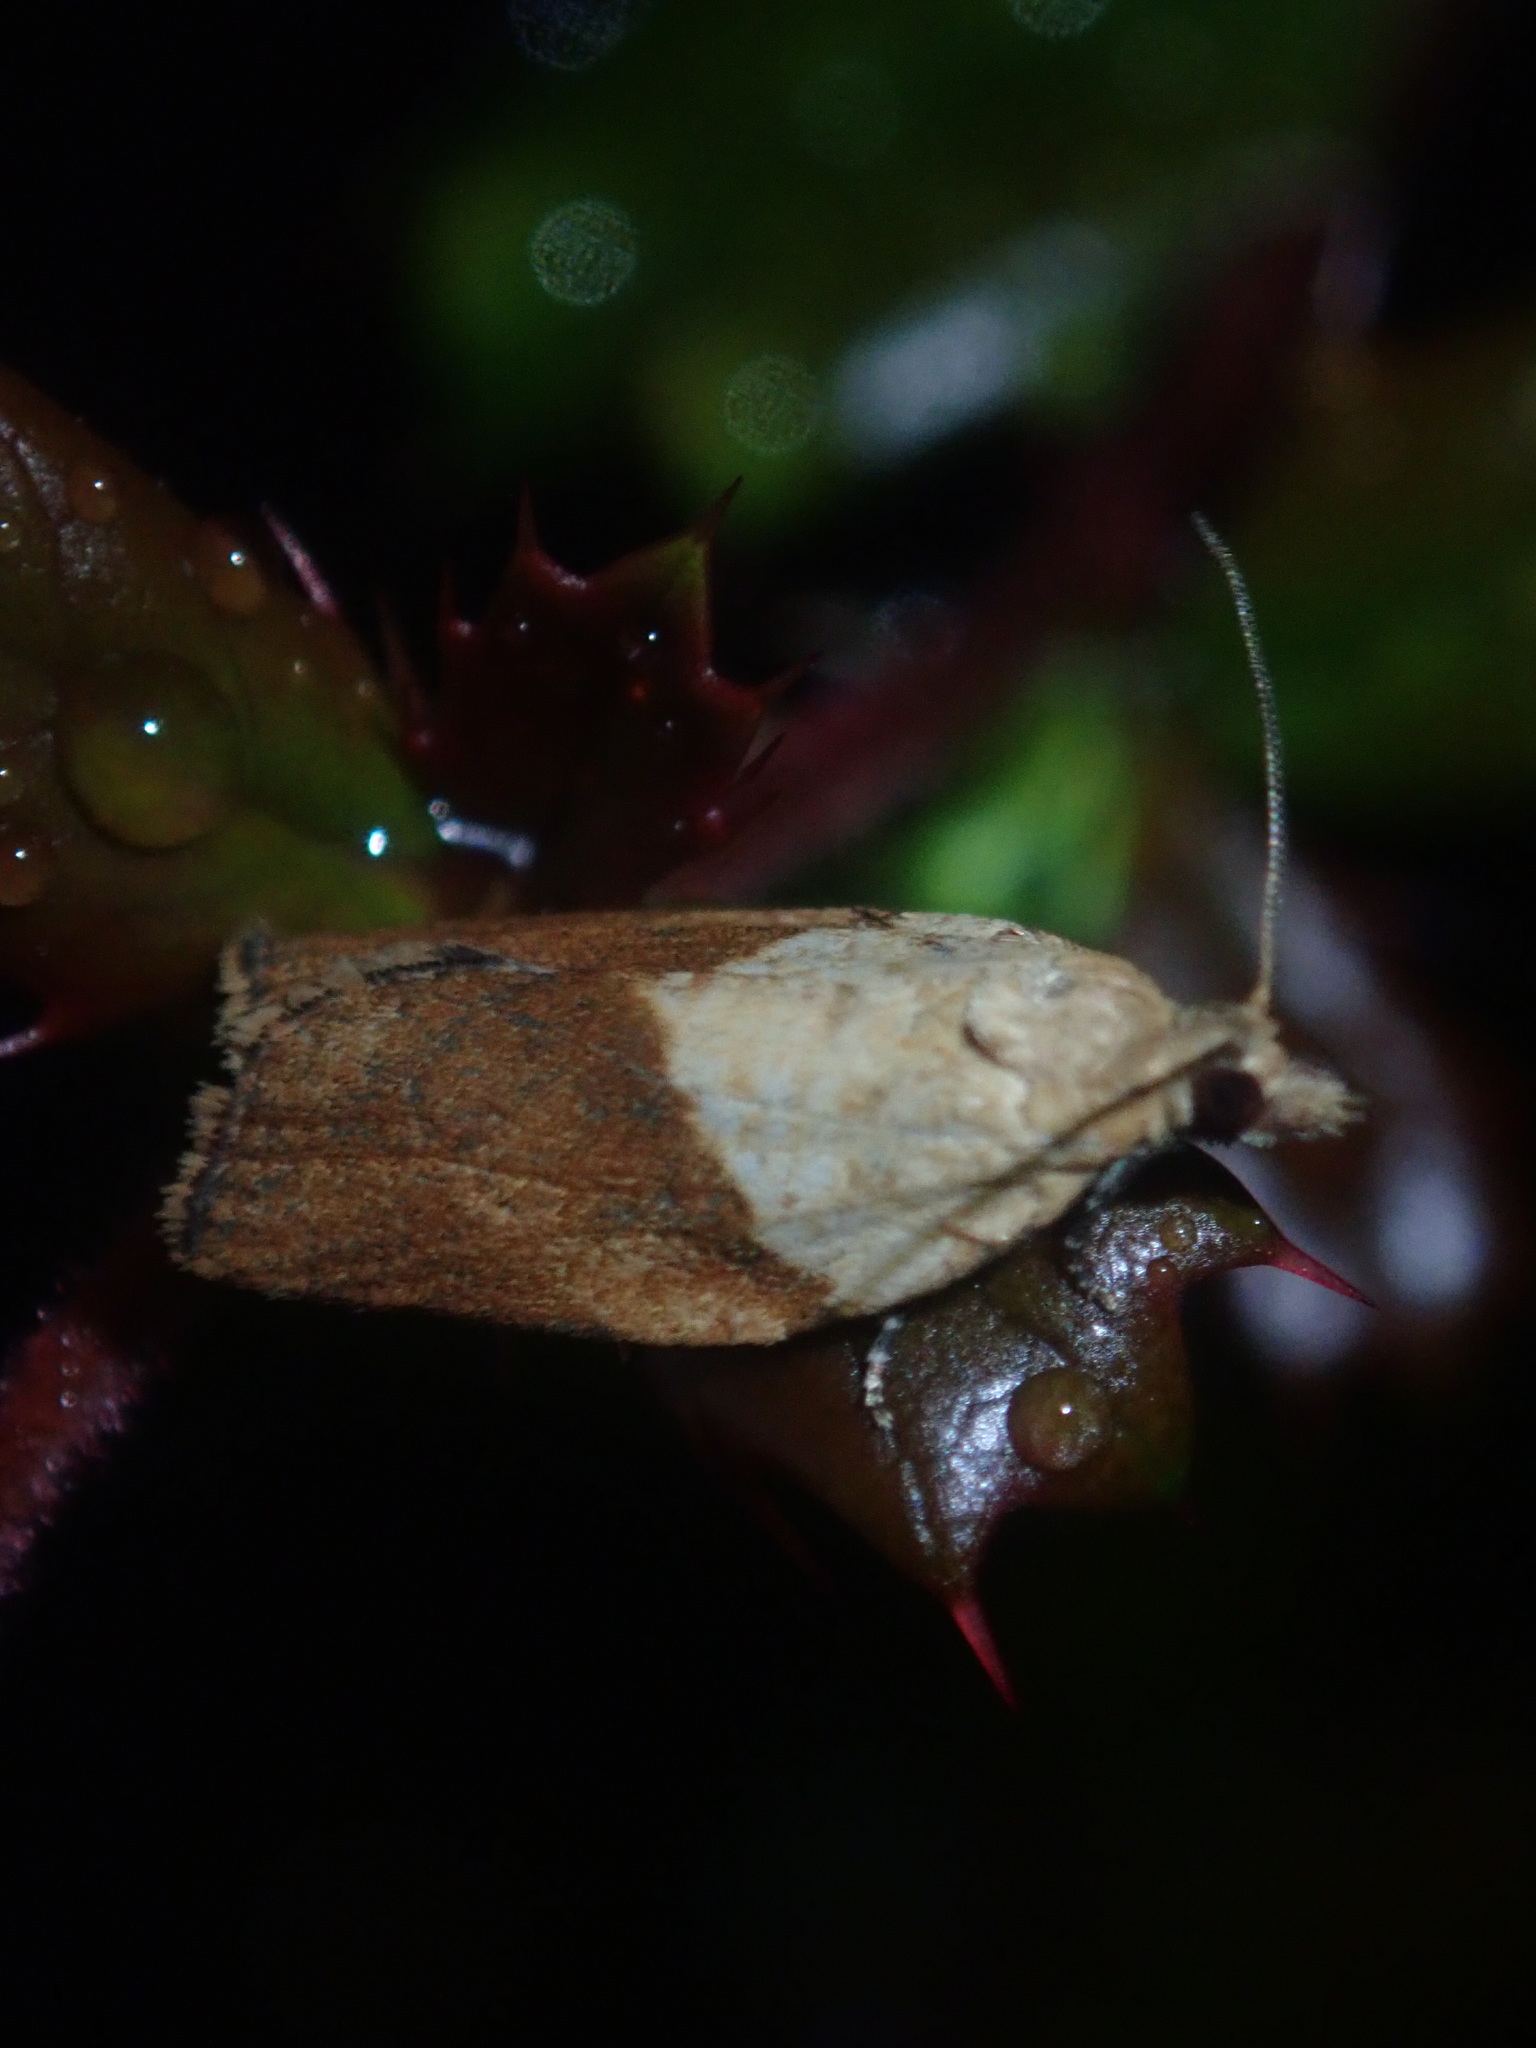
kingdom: Animalia
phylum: Arthropoda
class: Insecta
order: Lepidoptera
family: Tortricidae
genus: Epiphyas
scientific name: Epiphyas postvittana
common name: Light brown apple moth
